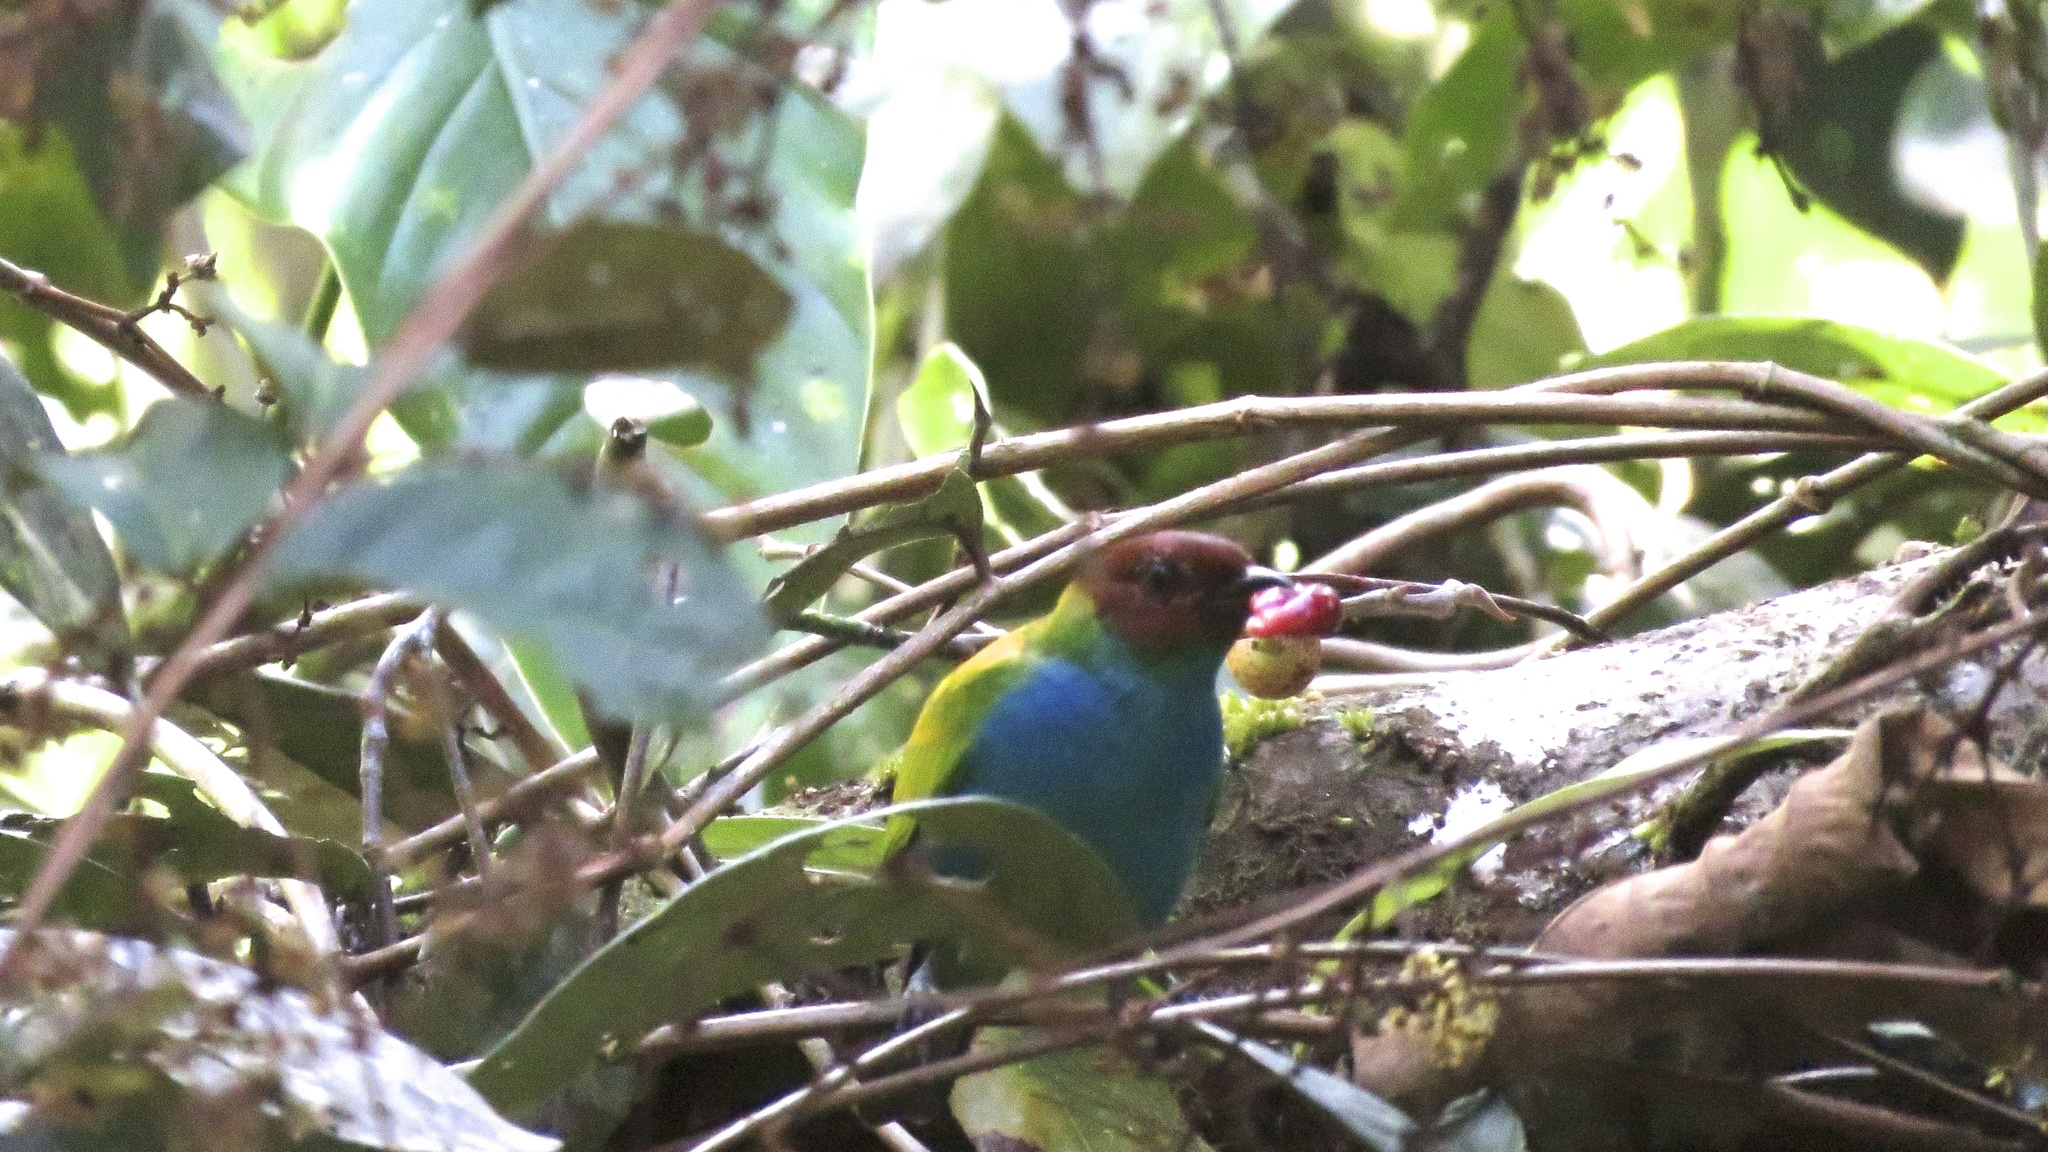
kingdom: Animalia
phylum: Chordata
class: Aves
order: Passeriformes
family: Thraupidae
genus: Tangara
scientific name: Tangara gyrola
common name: Bay-headed tanager
